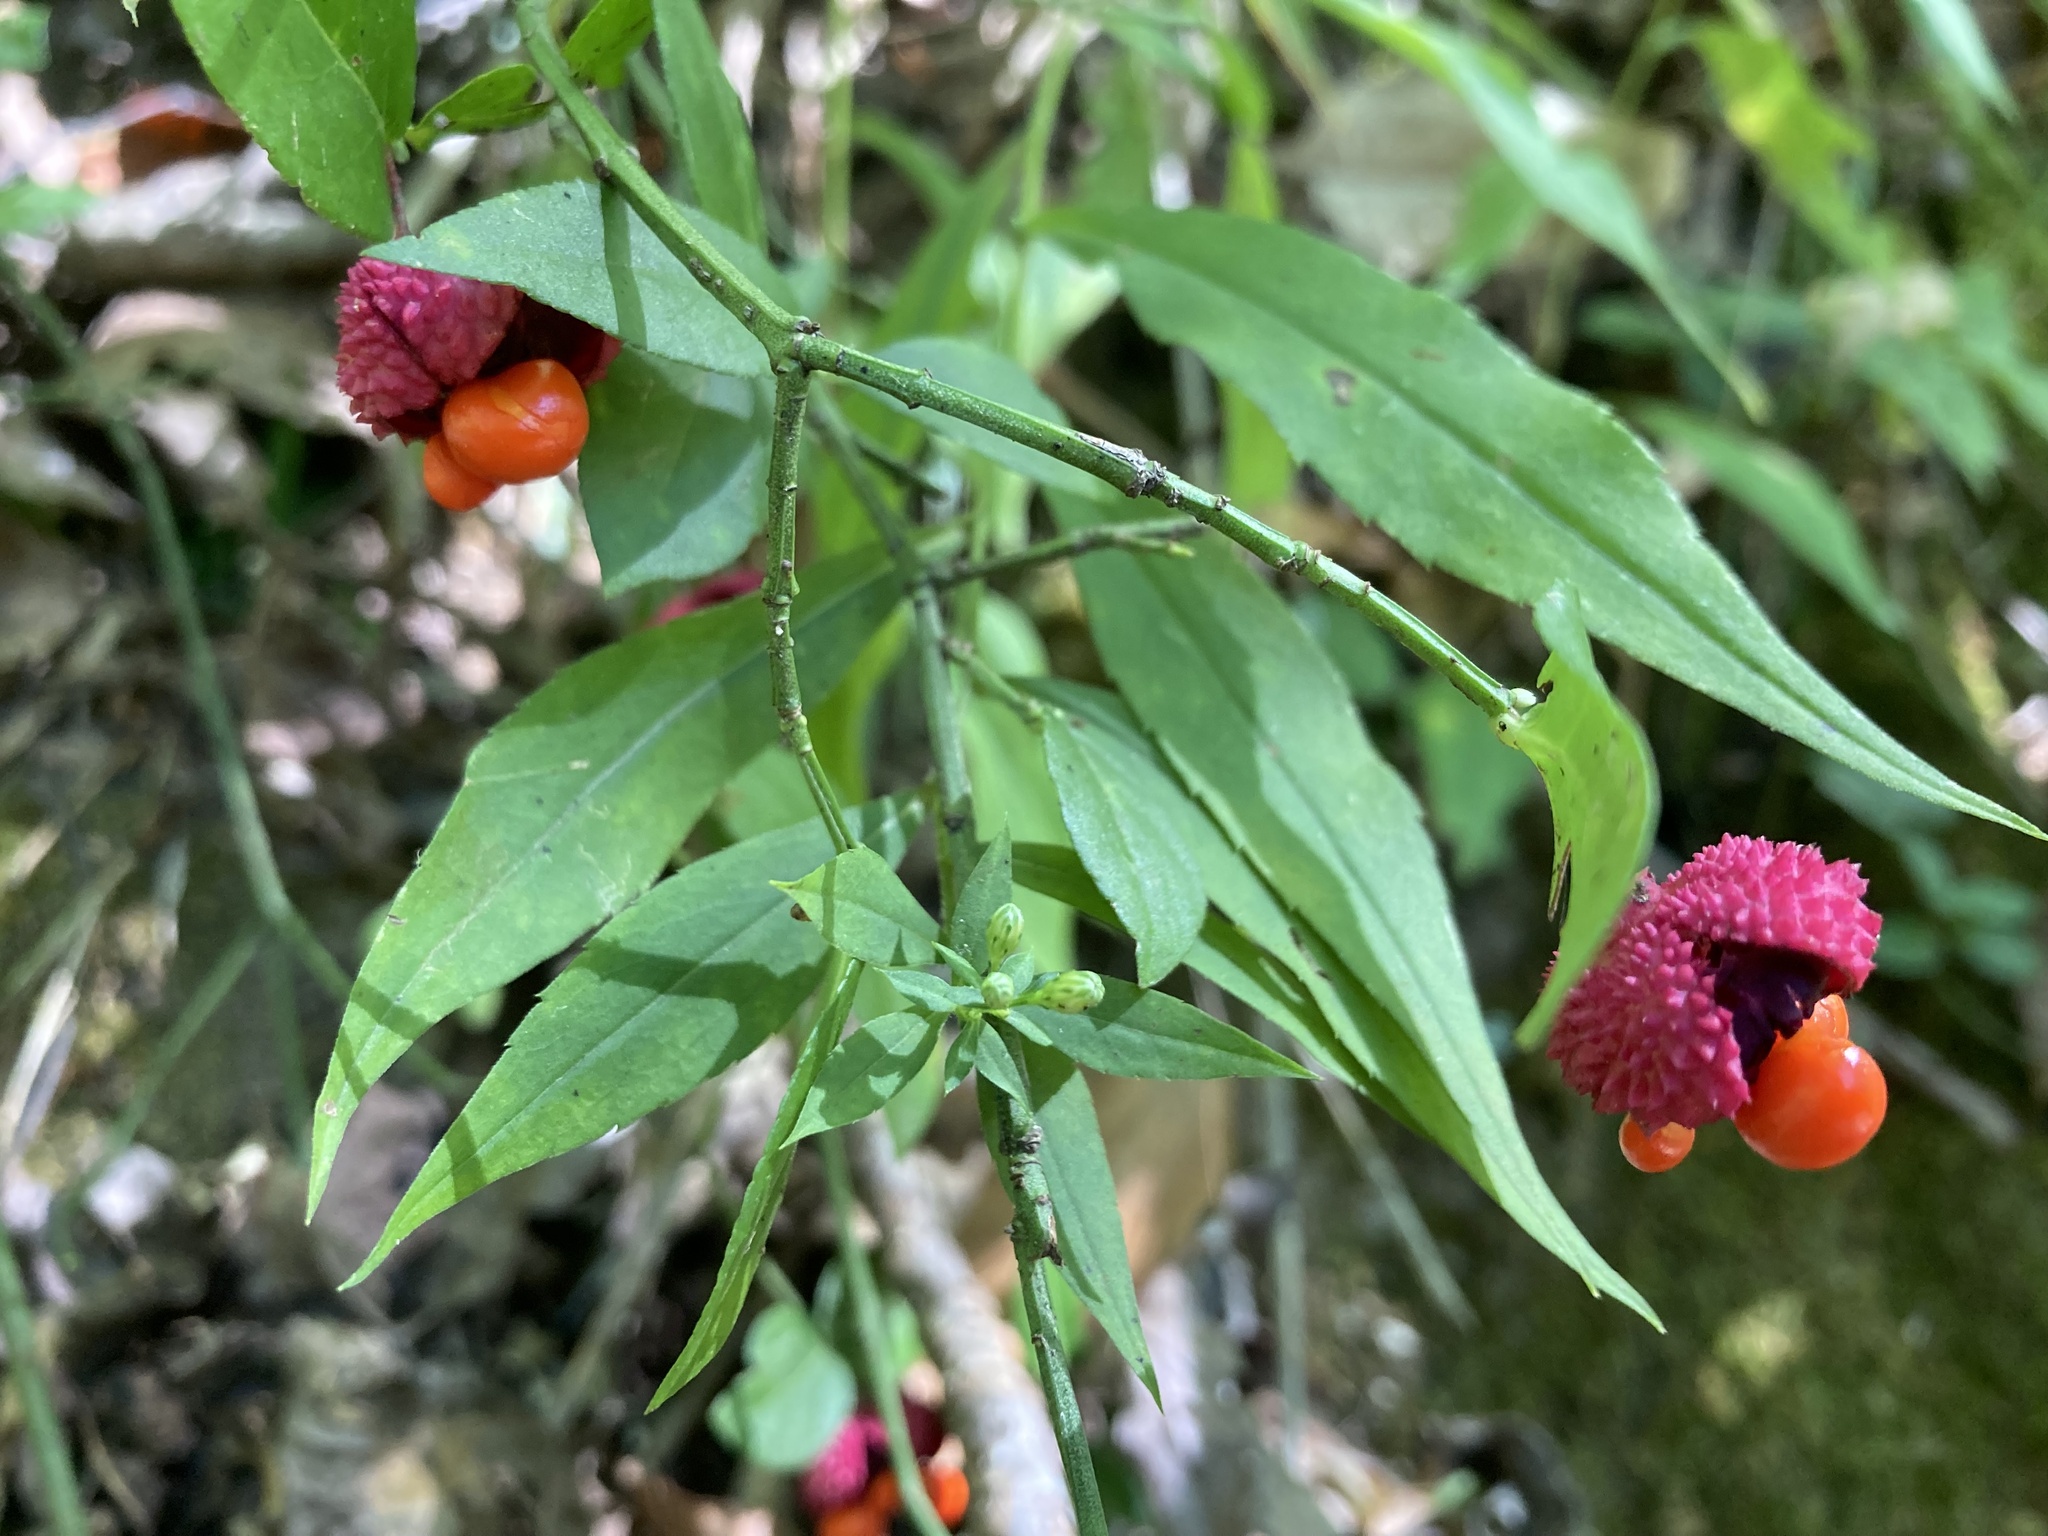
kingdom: Plantae
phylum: Tracheophyta
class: Magnoliopsida
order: Celastrales
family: Celastraceae
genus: Euonymus
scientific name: Euonymus americanus
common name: Bursting-heart
